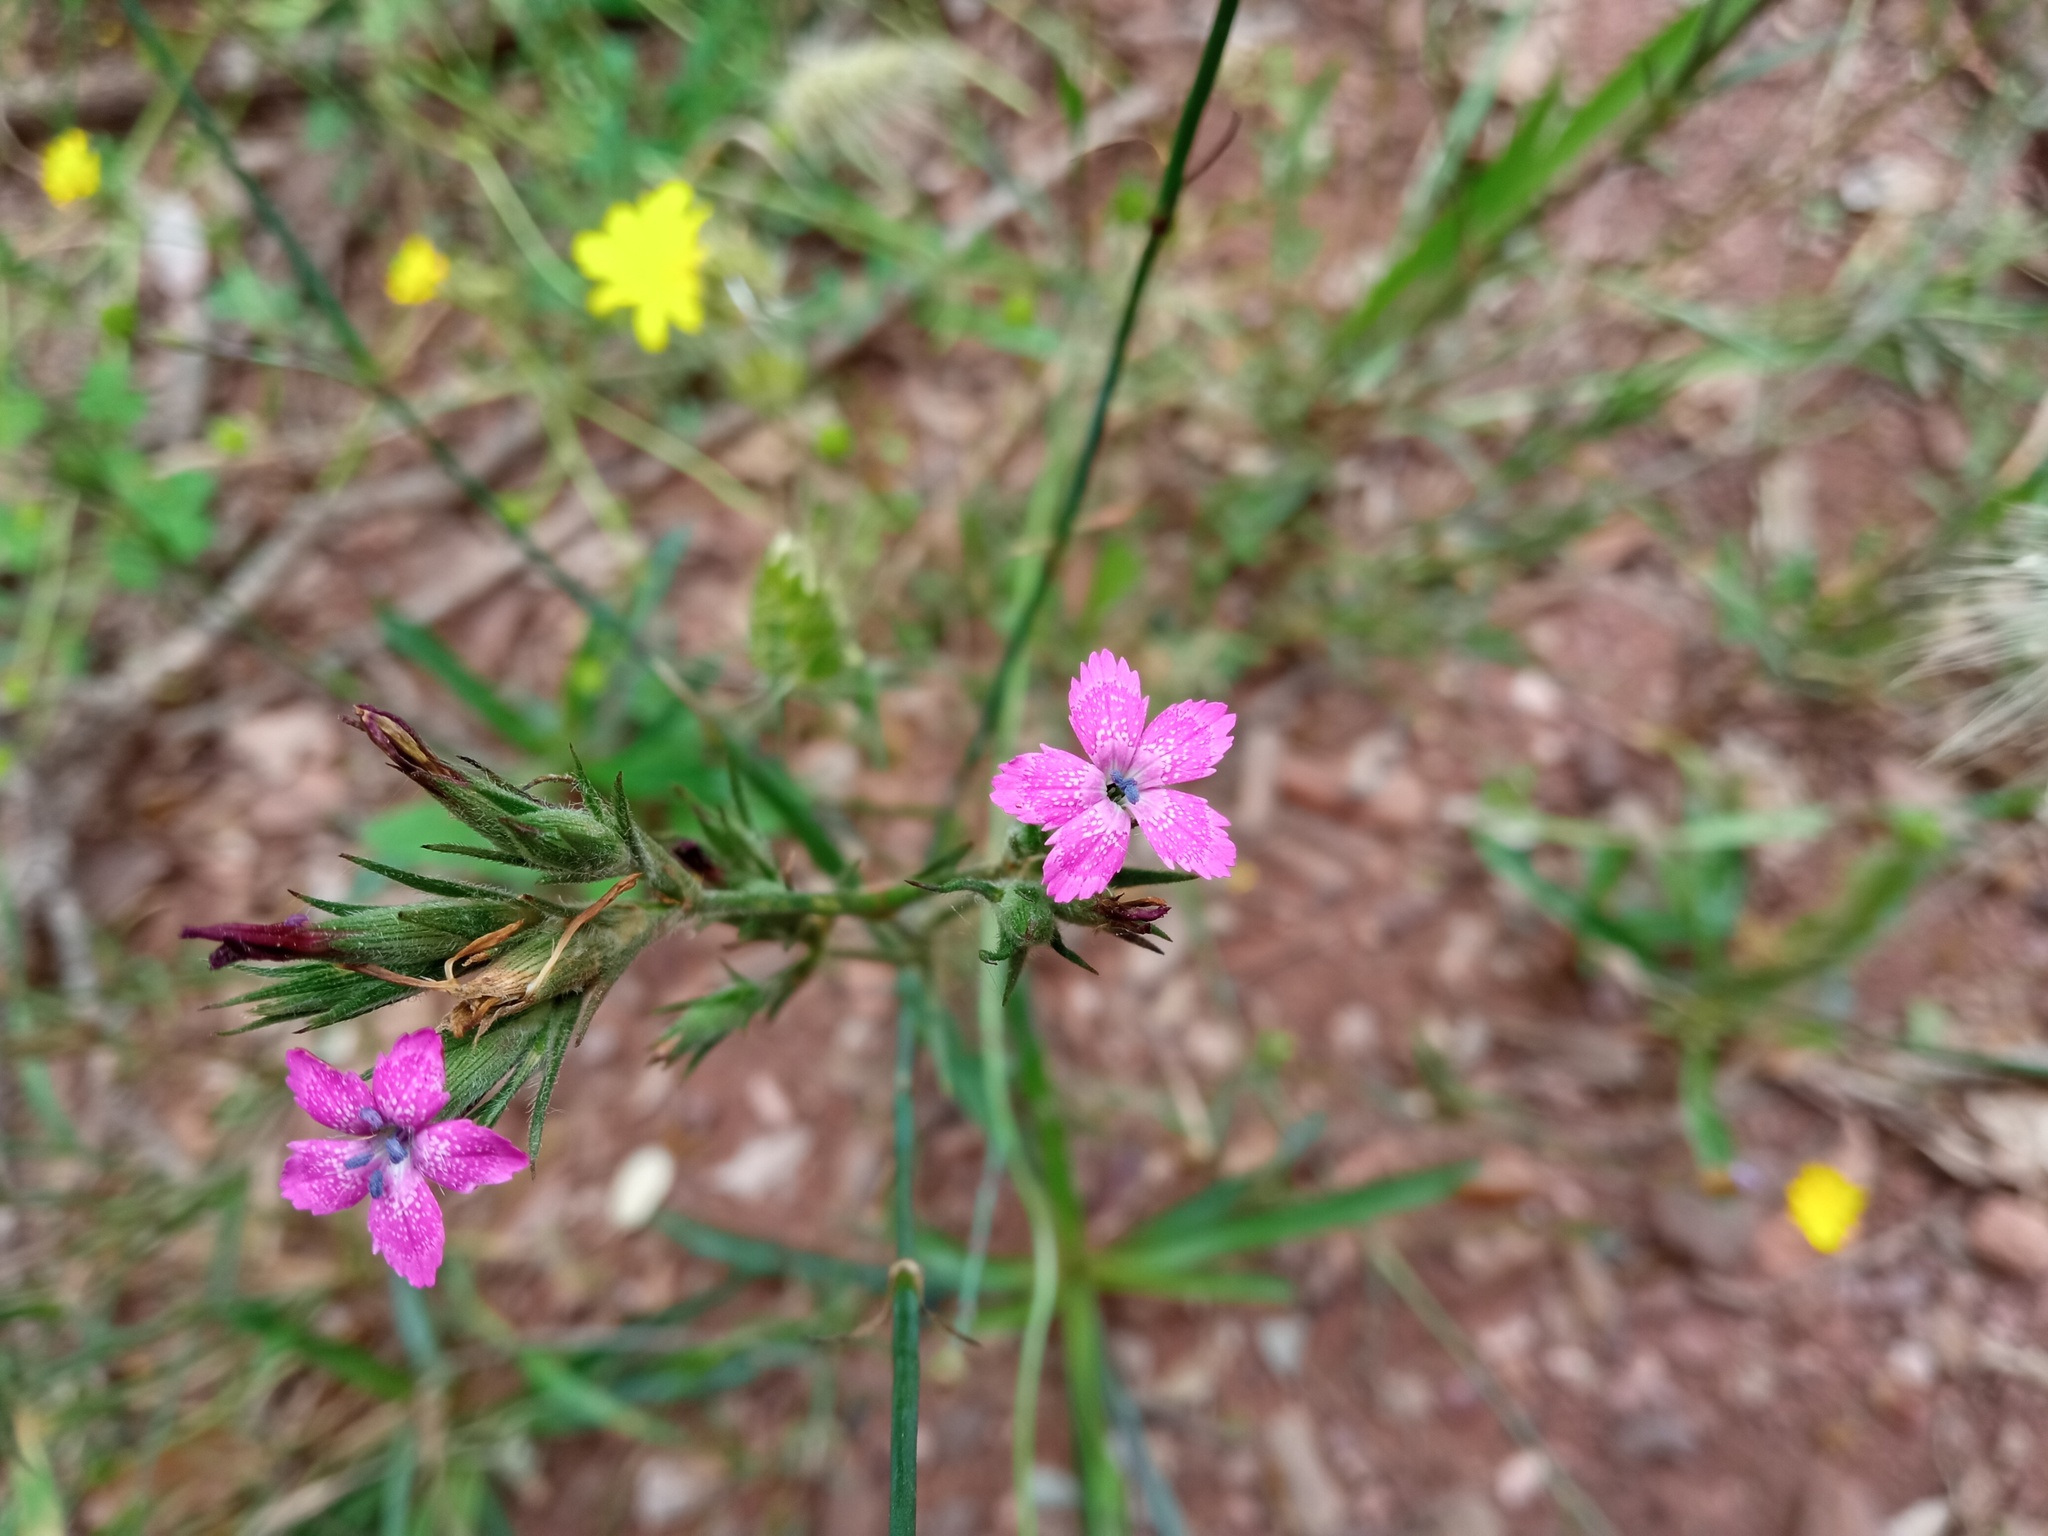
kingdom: Plantae
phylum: Tracheophyta
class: Magnoliopsida
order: Caryophyllales
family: Caryophyllaceae
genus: Dianthus
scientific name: Dianthus armeria
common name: Deptford pink
